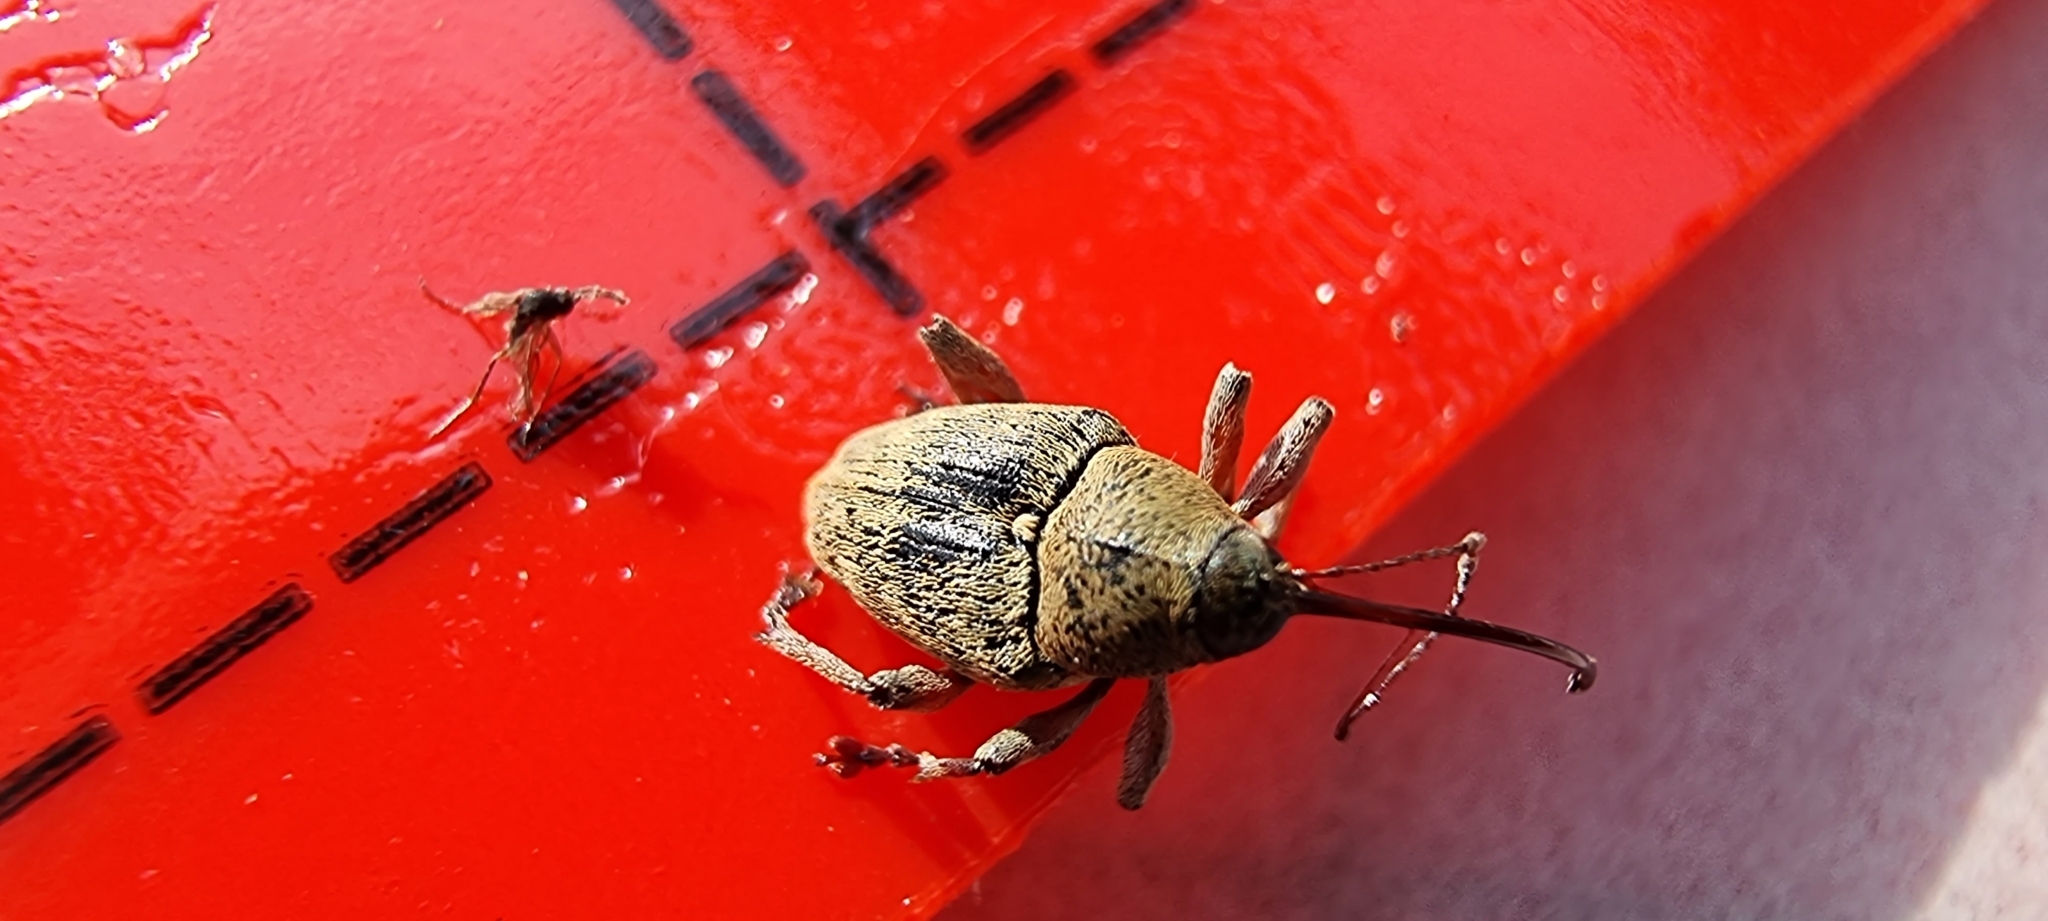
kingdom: Animalia
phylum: Arthropoda
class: Insecta
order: Coleoptera
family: Curculionidae
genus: Curculio
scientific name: Curculio glandium
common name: Acorn weevil
